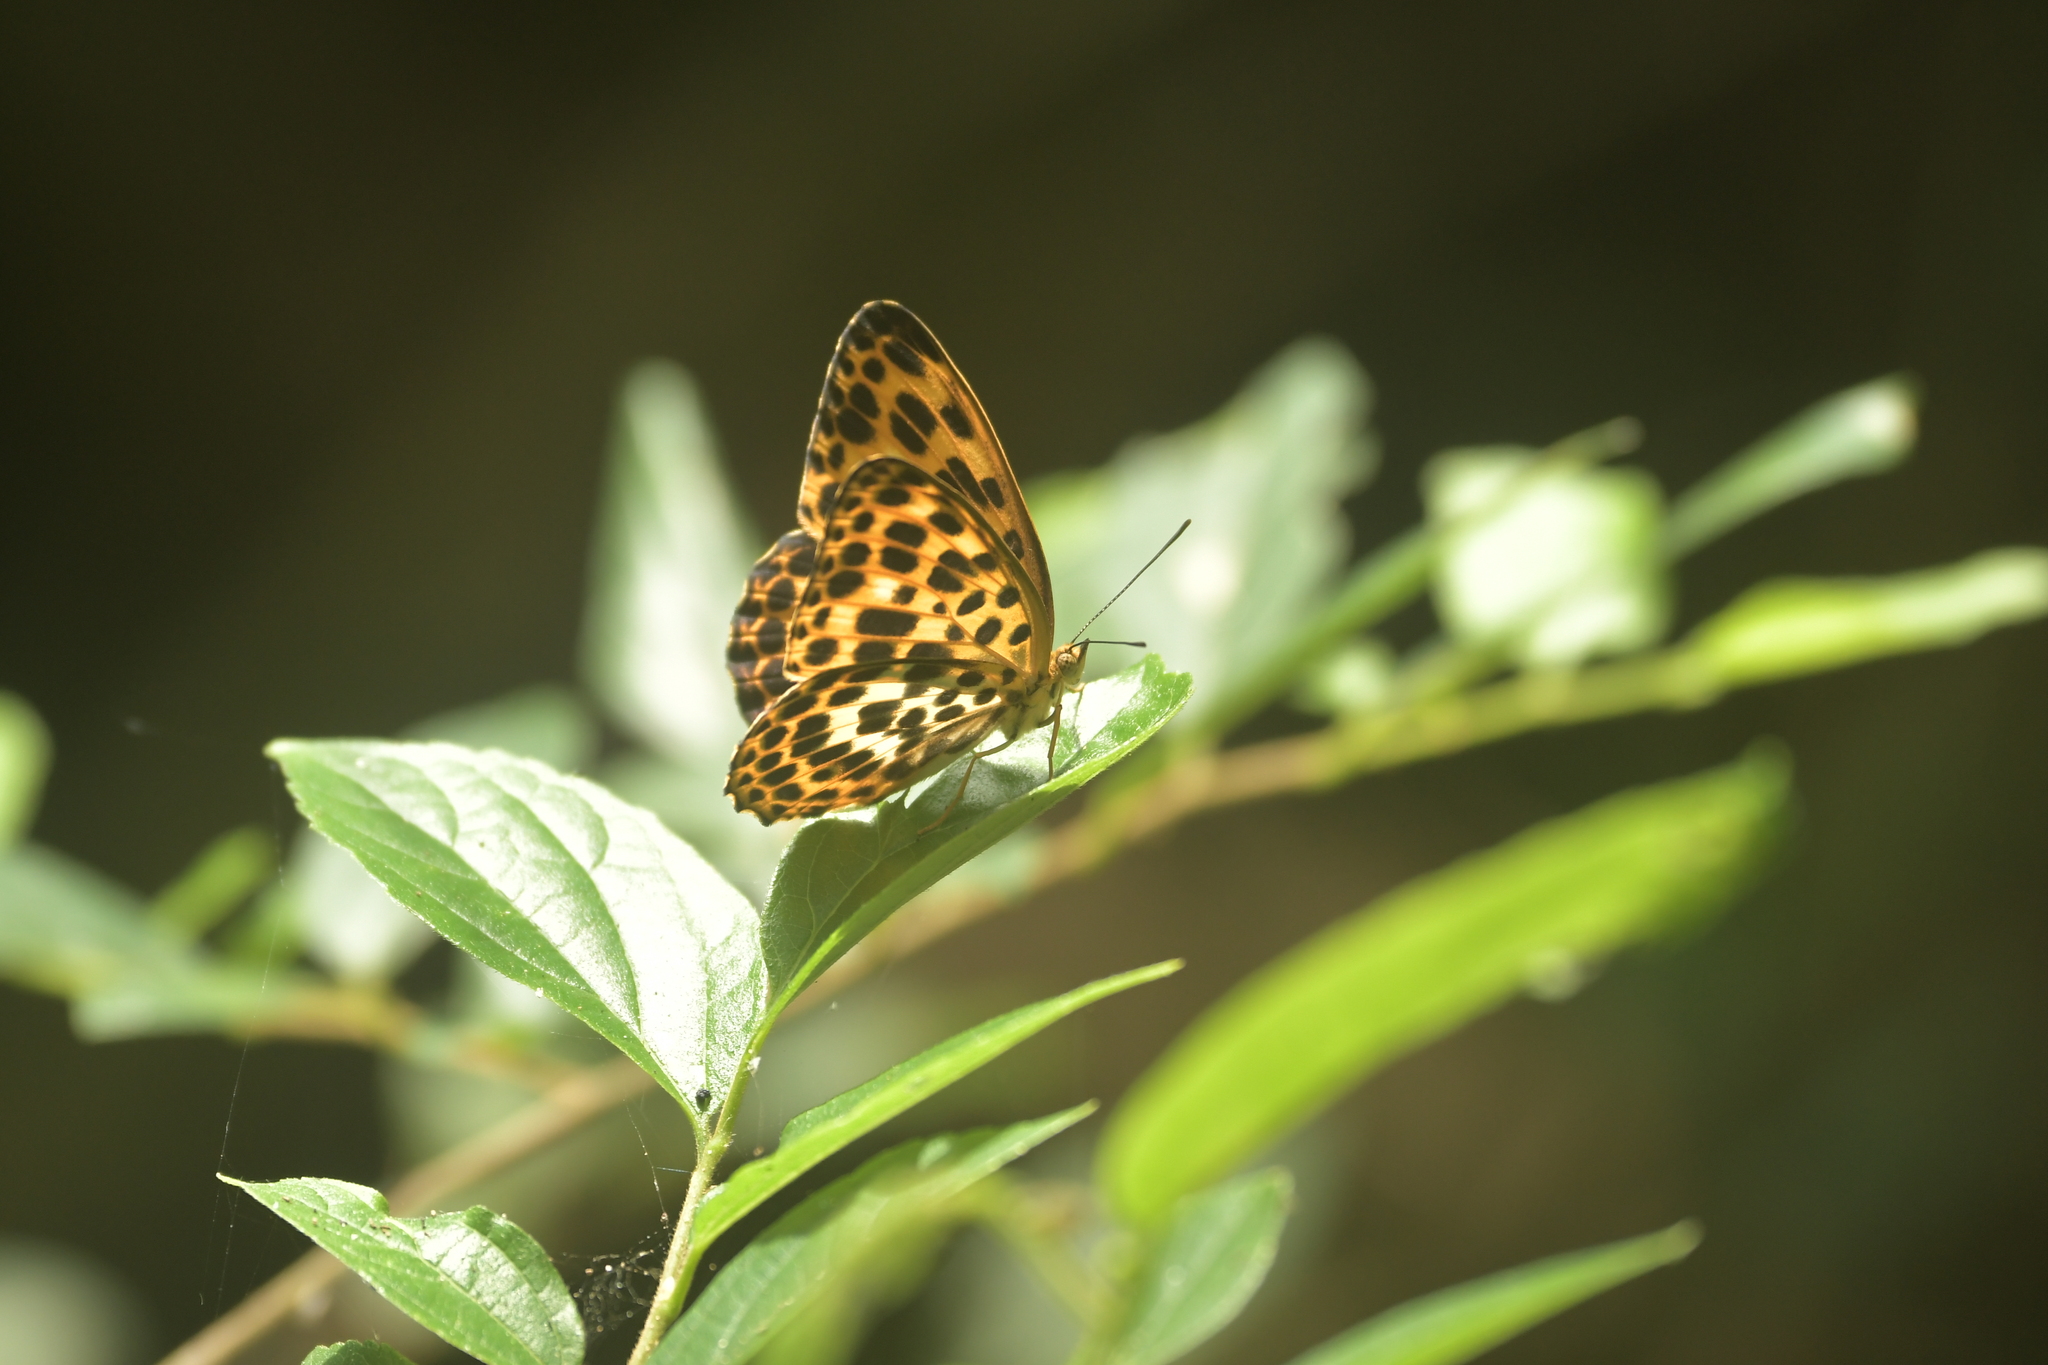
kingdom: Animalia
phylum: Arthropoda
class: Insecta
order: Lepidoptera
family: Nymphalidae
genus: Timelaea
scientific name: Timelaea albescens
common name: Beautiful leopard
